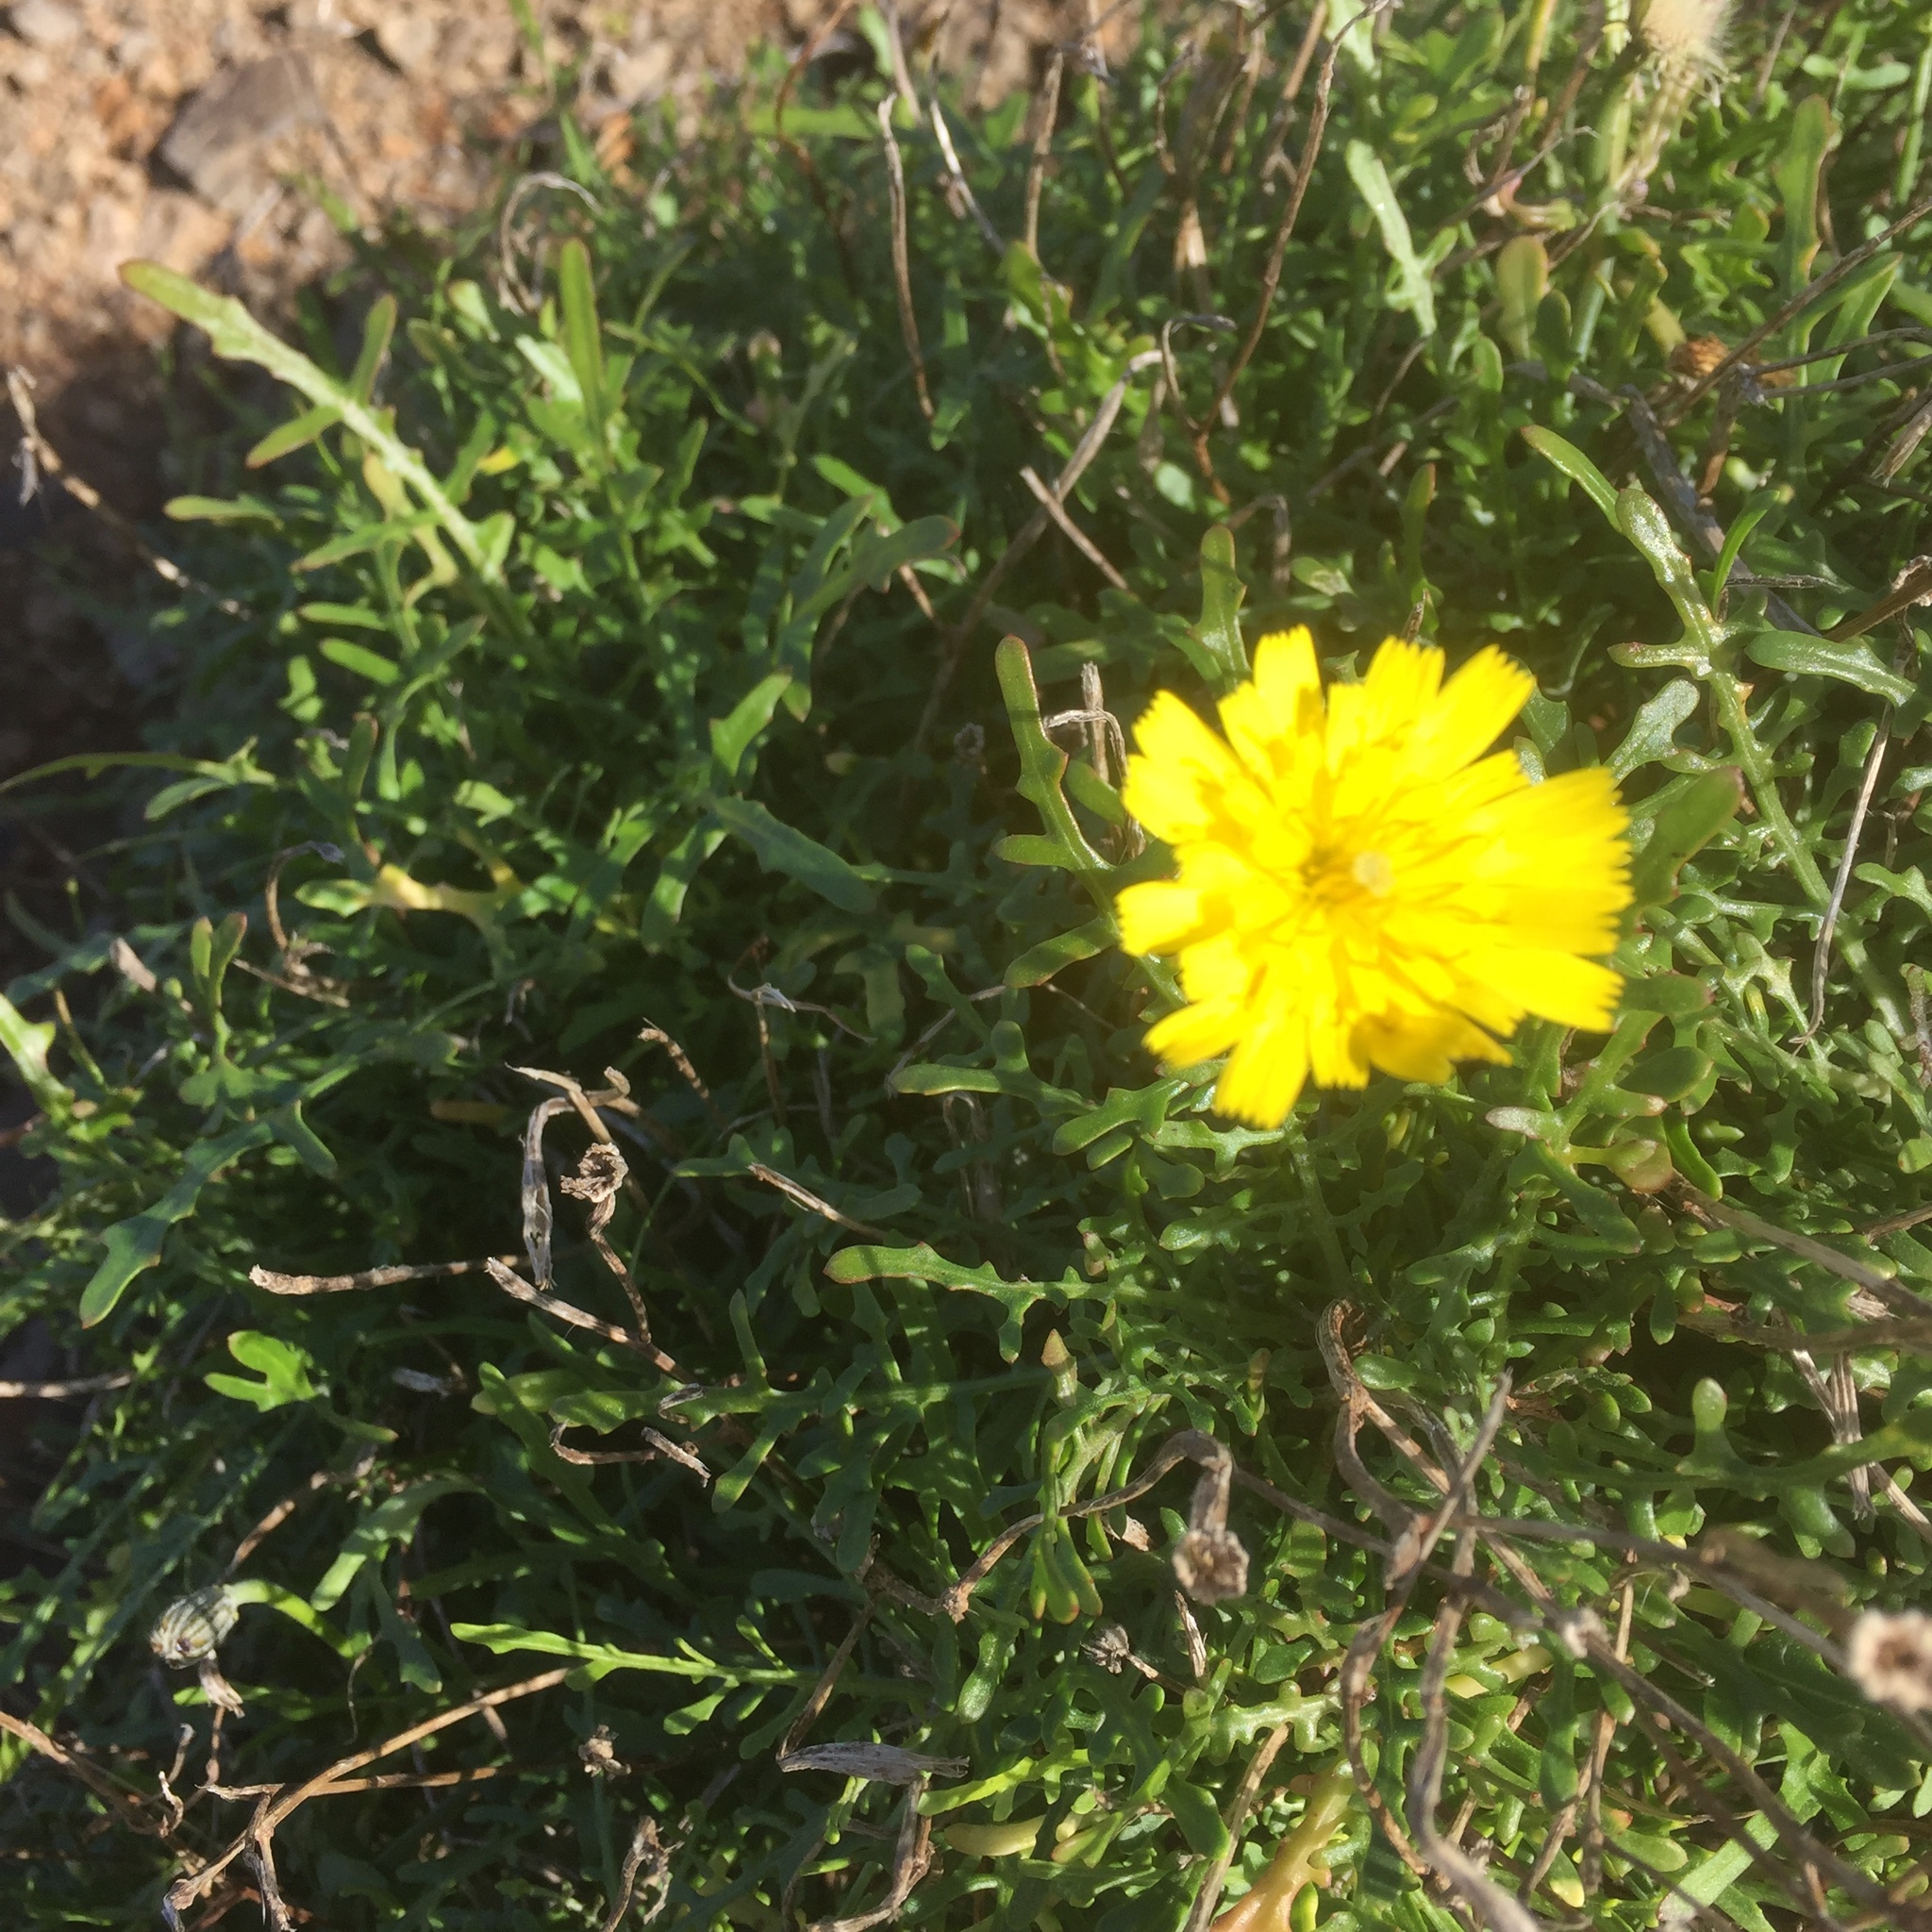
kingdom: Plantae
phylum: Tracheophyta
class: Magnoliopsida
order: Asterales
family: Asteraceae
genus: Tolpis
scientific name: Tolpis succulenta
